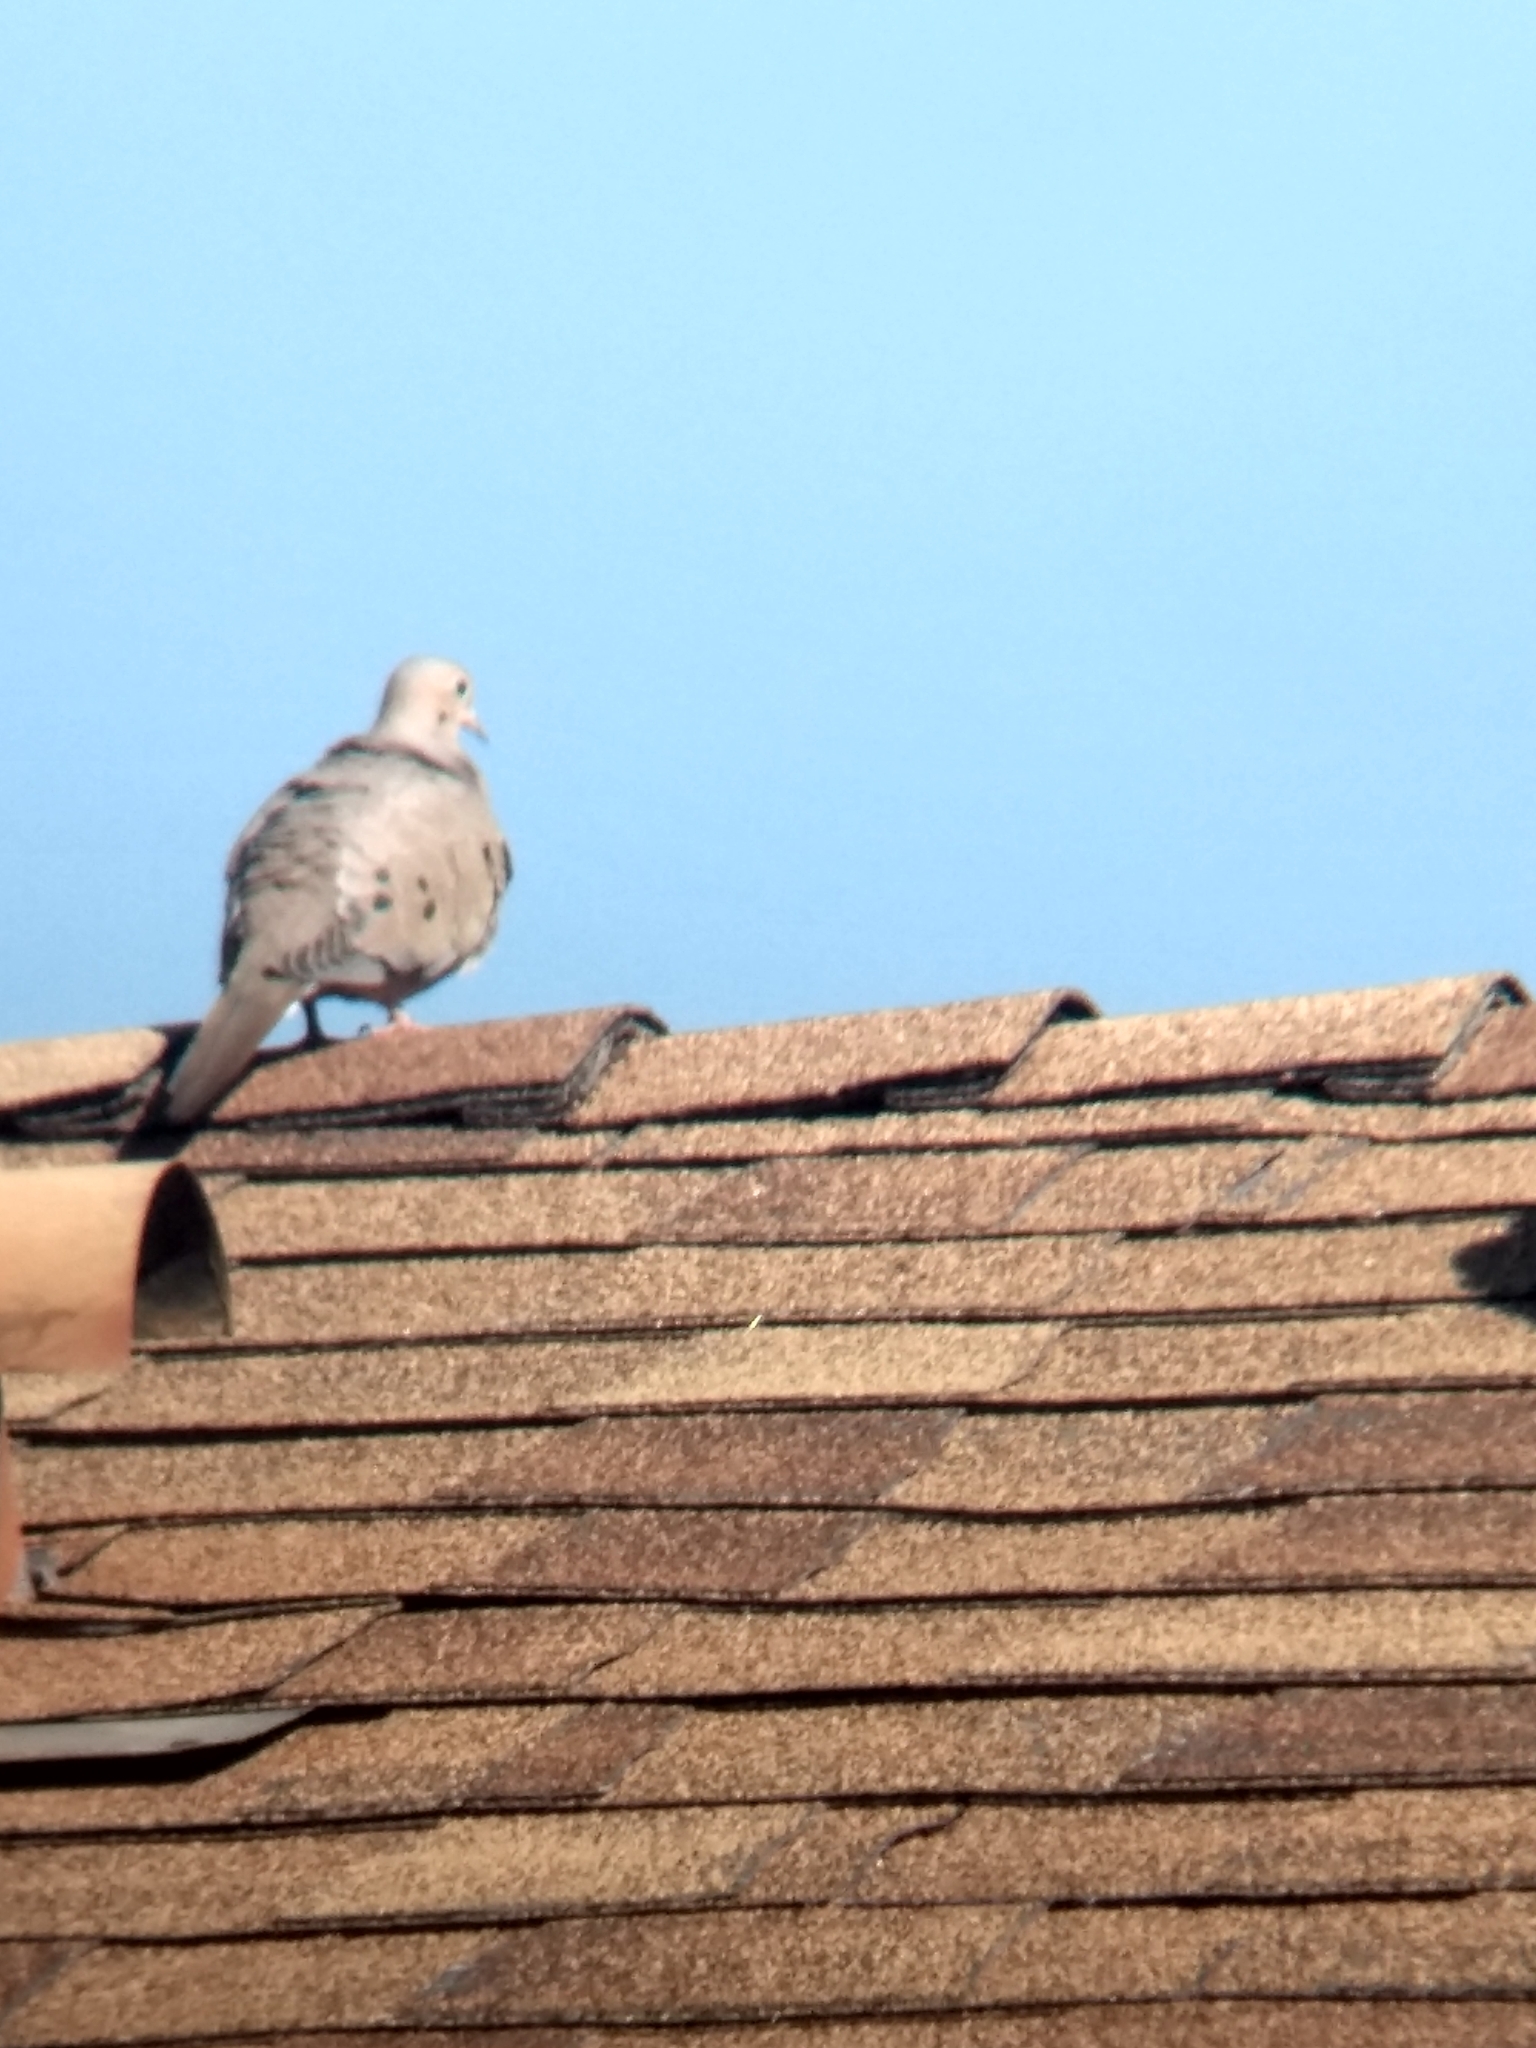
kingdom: Animalia
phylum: Chordata
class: Aves
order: Columbiformes
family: Columbidae
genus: Zenaida
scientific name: Zenaida macroura
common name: Mourning dove
